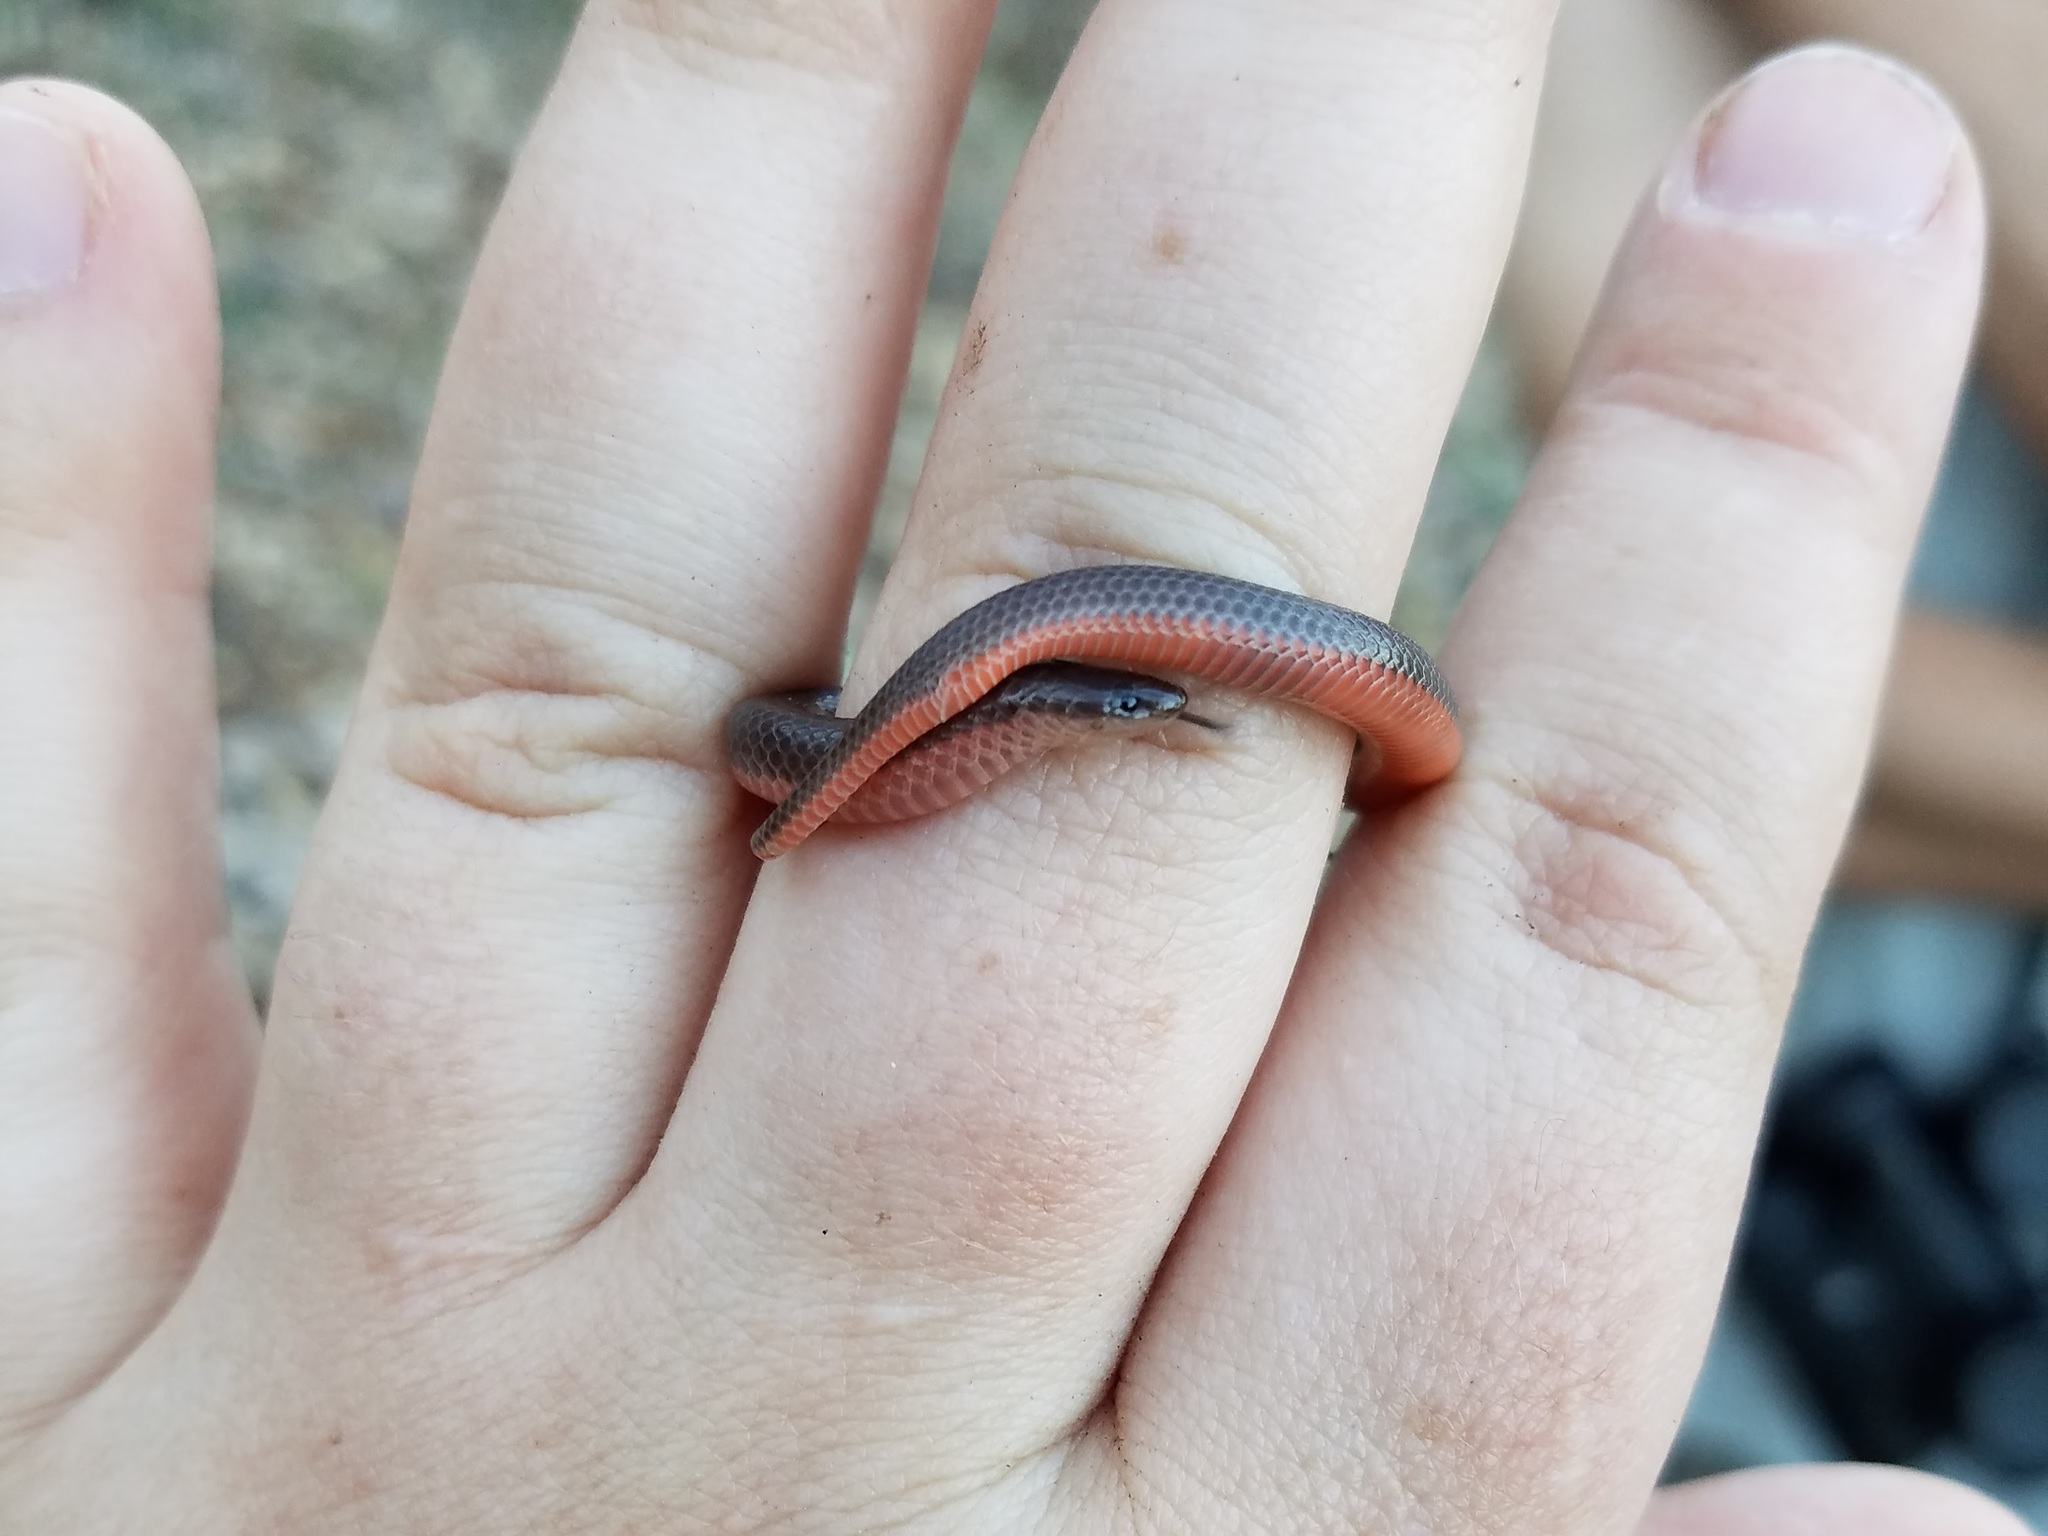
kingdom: Animalia
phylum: Chordata
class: Squamata
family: Colubridae
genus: Carphophis
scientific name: Carphophis amoenus
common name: Eastern worm snake
